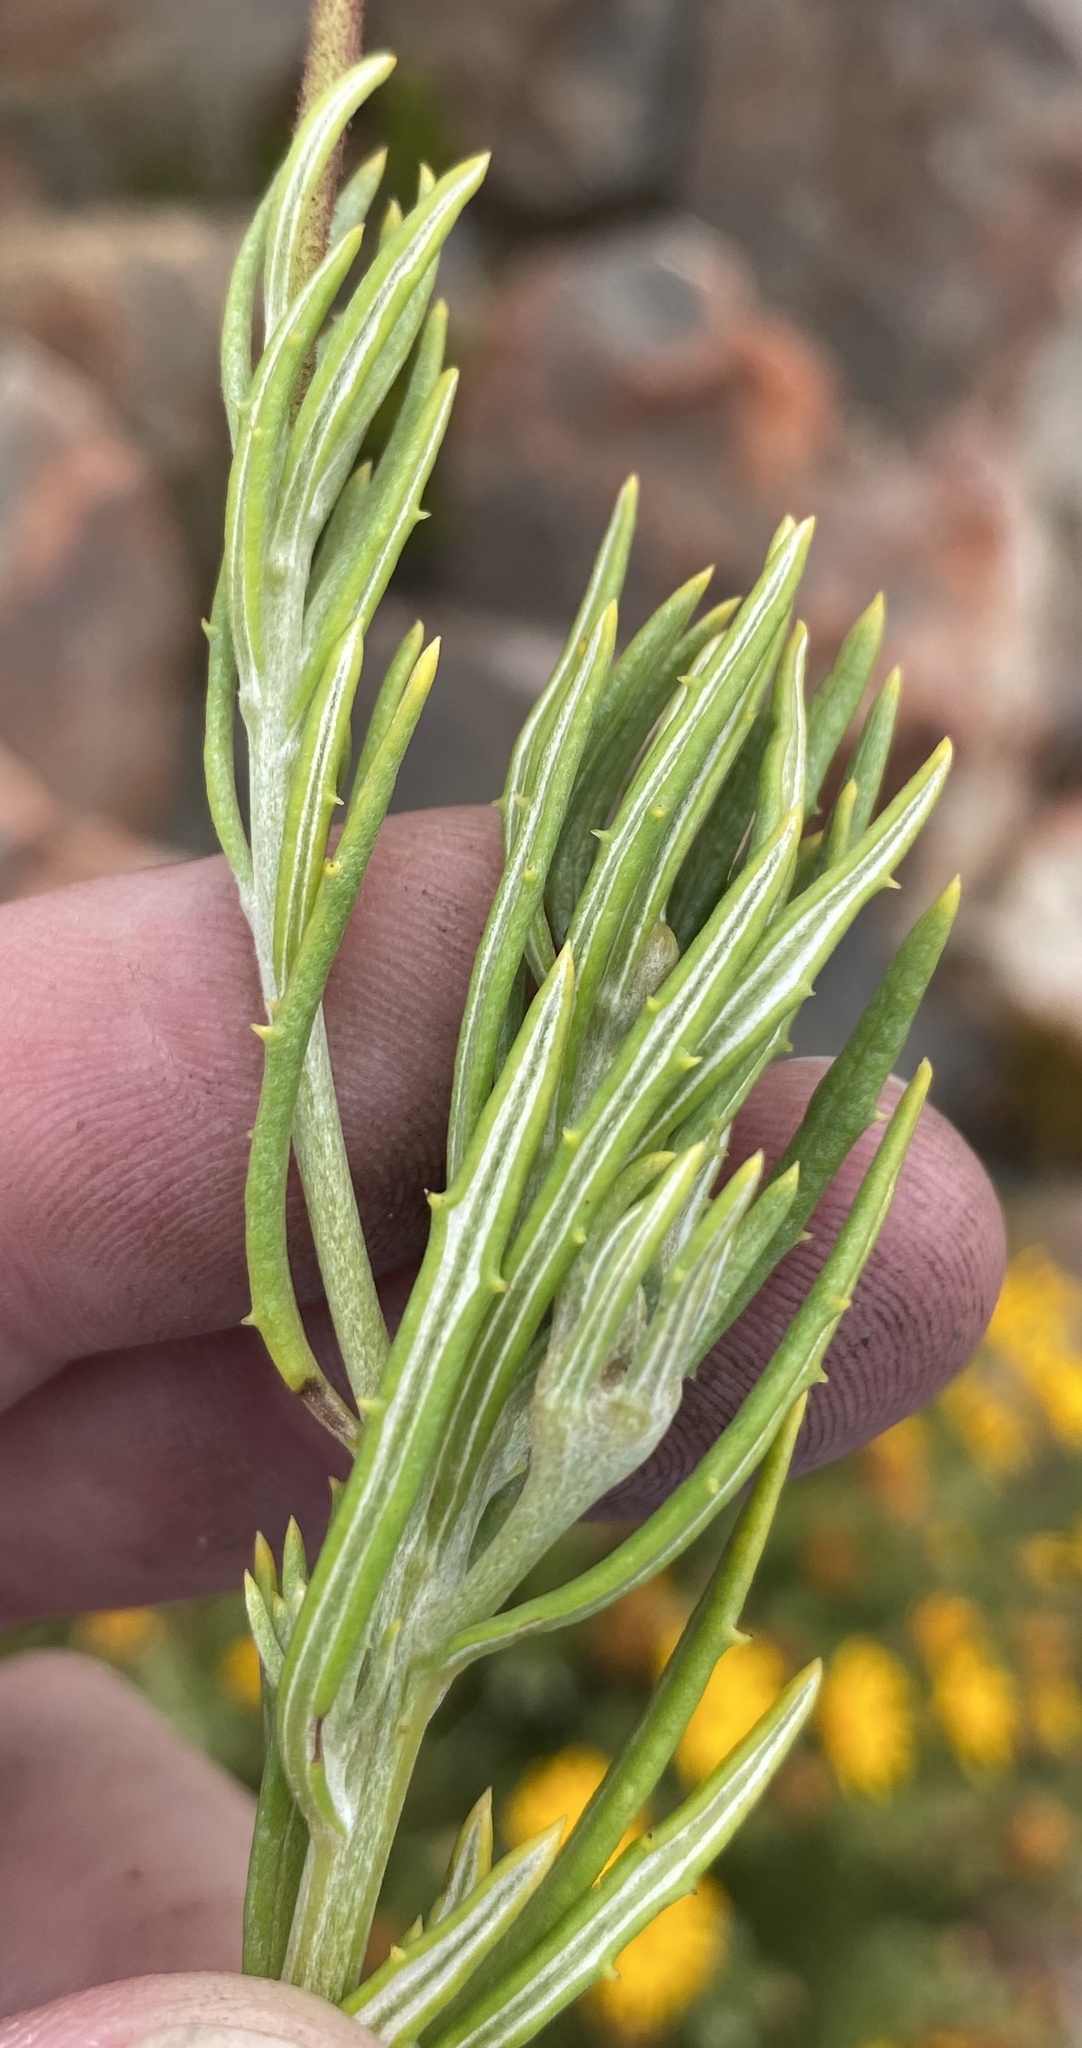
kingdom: Plantae
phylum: Tracheophyta
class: Magnoliopsida
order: Asterales
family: Asteraceae
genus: Heterolepis
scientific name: Heterolepis aliena
